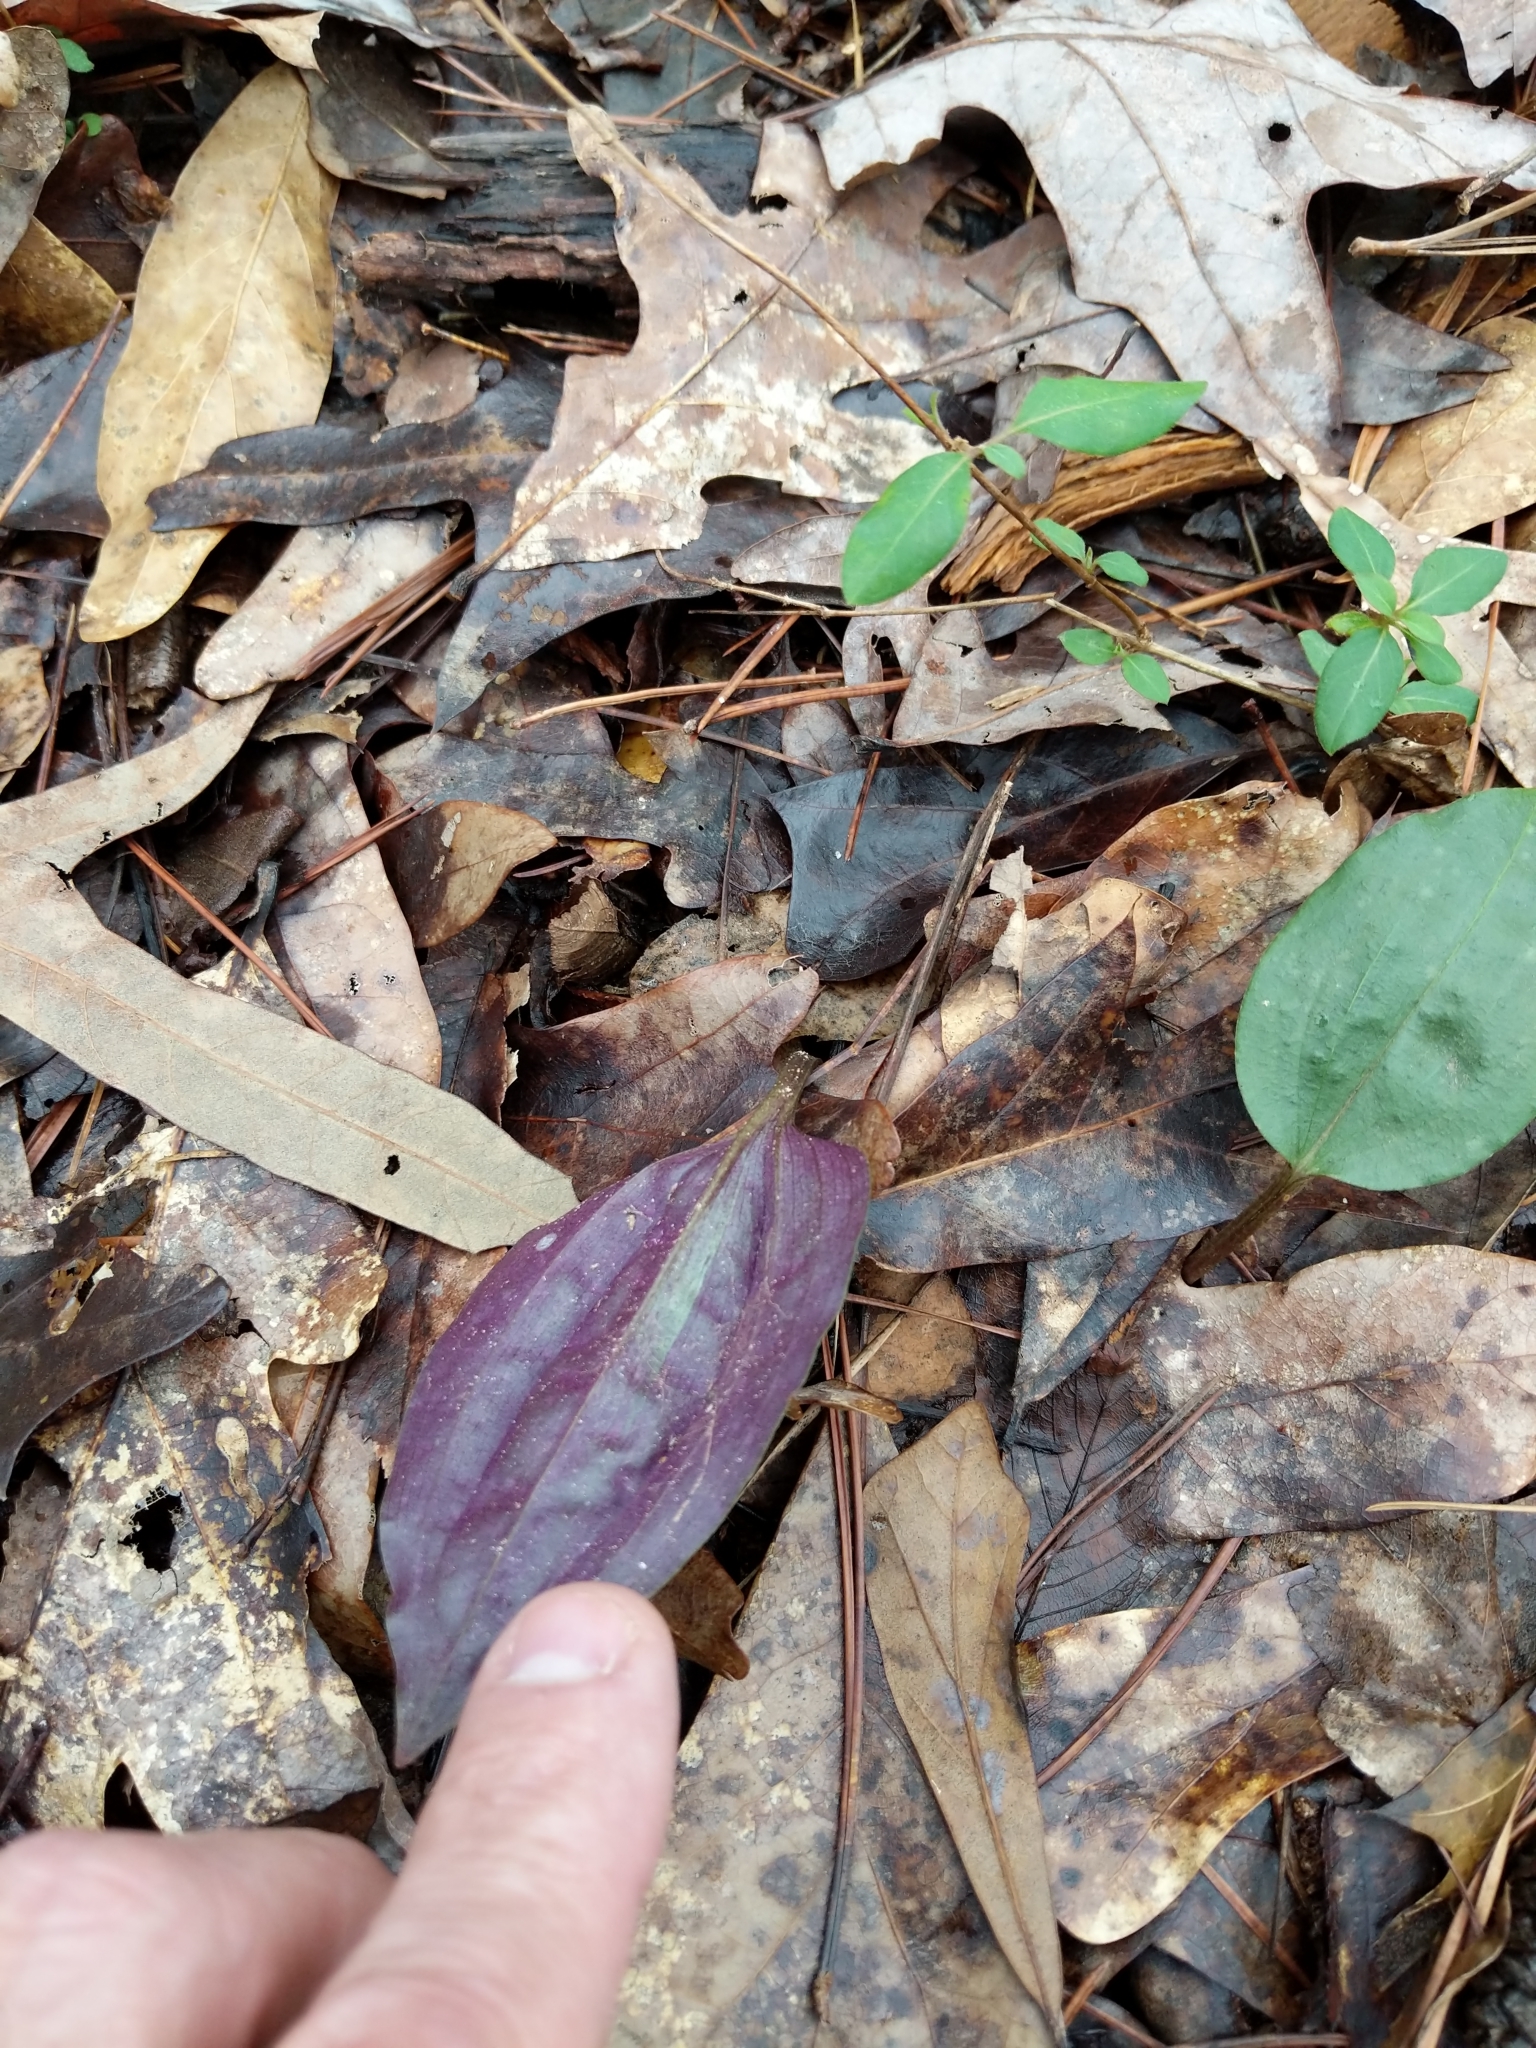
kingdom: Plantae
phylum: Tracheophyta
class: Liliopsida
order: Asparagales
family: Orchidaceae
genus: Tipularia
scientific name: Tipularia discolor
